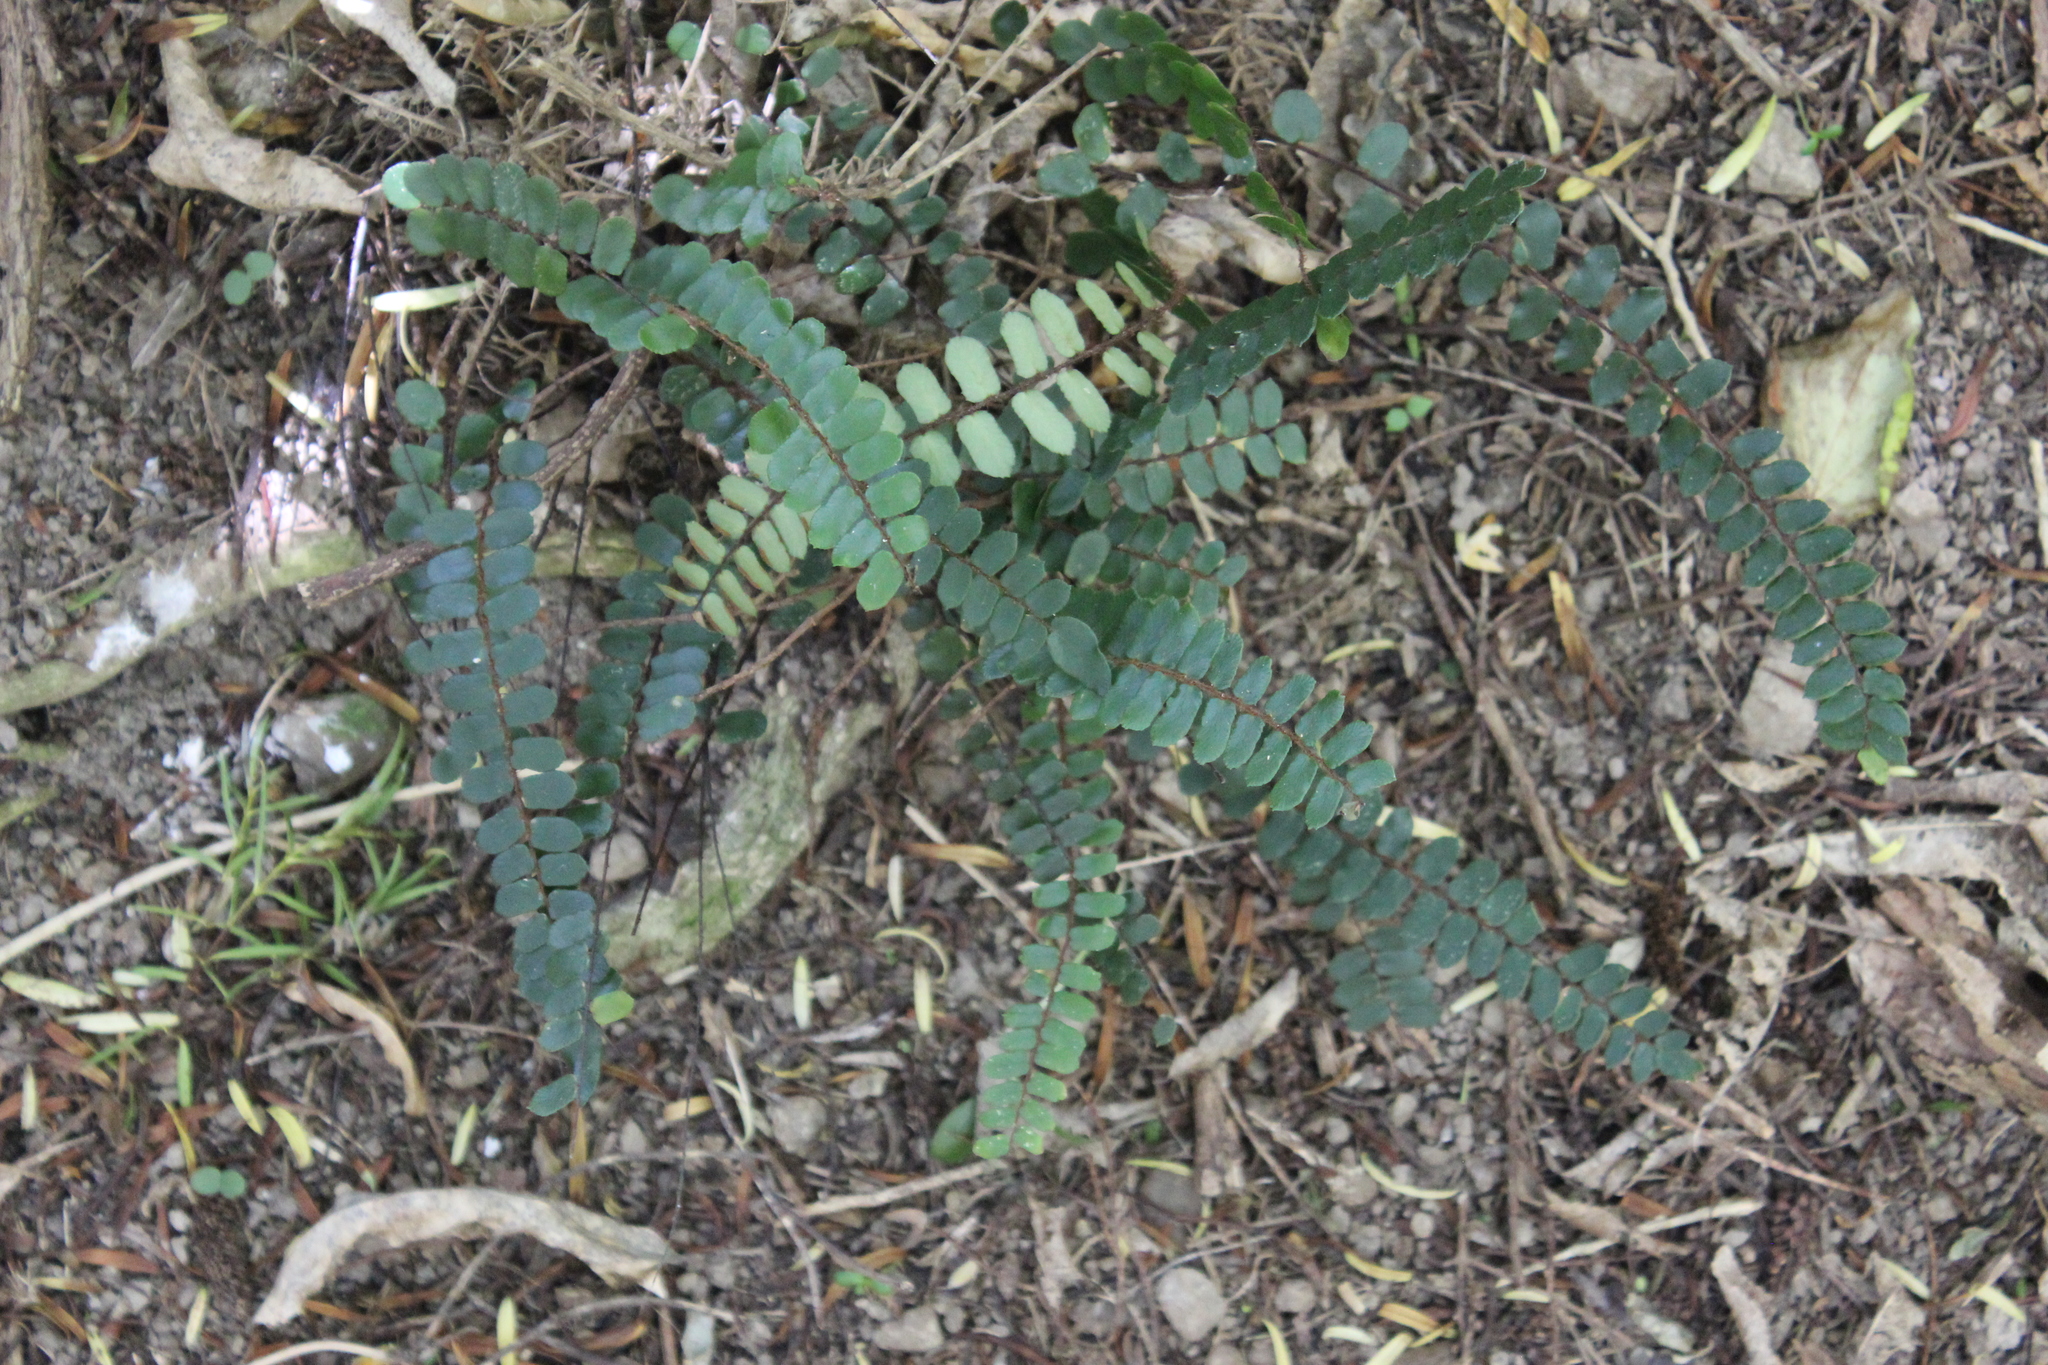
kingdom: Plantae
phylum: Tracheophyta
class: Polypodiopsida
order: Polypodiales
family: Pteridaceae
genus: Pellaea
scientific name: Pellaea rotundifolia
